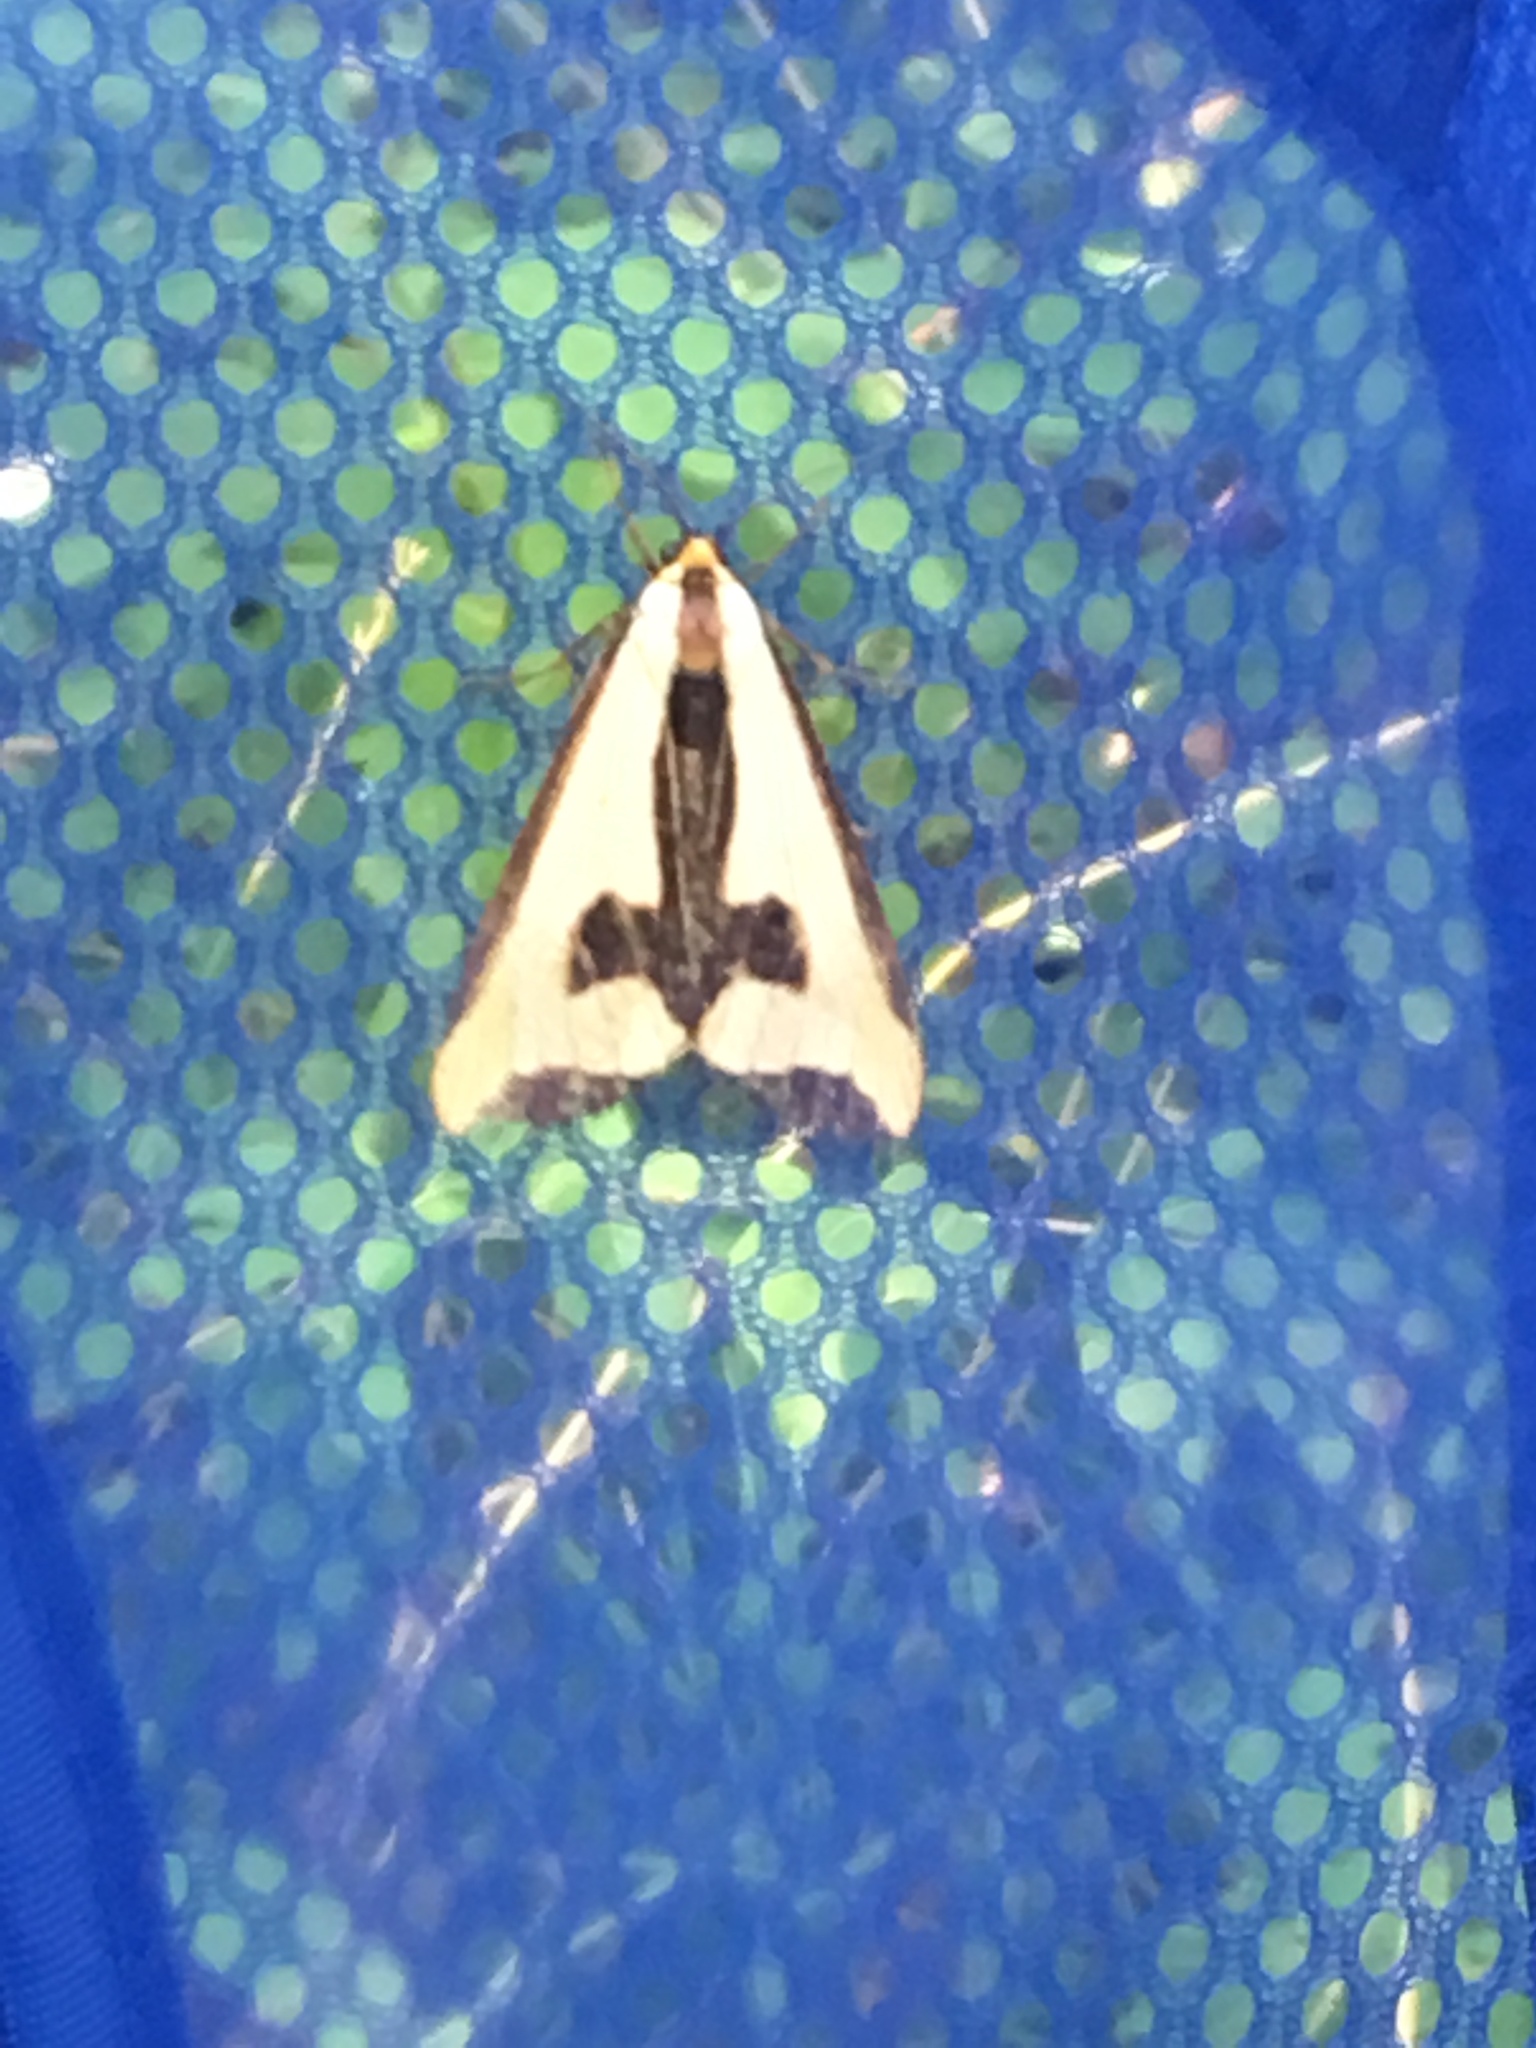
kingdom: Animalia
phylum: Arthropoda
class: Insecta
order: Lepidoptera
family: Erebidae
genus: Haploa
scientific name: Haploa clymene
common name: Clymene moth
